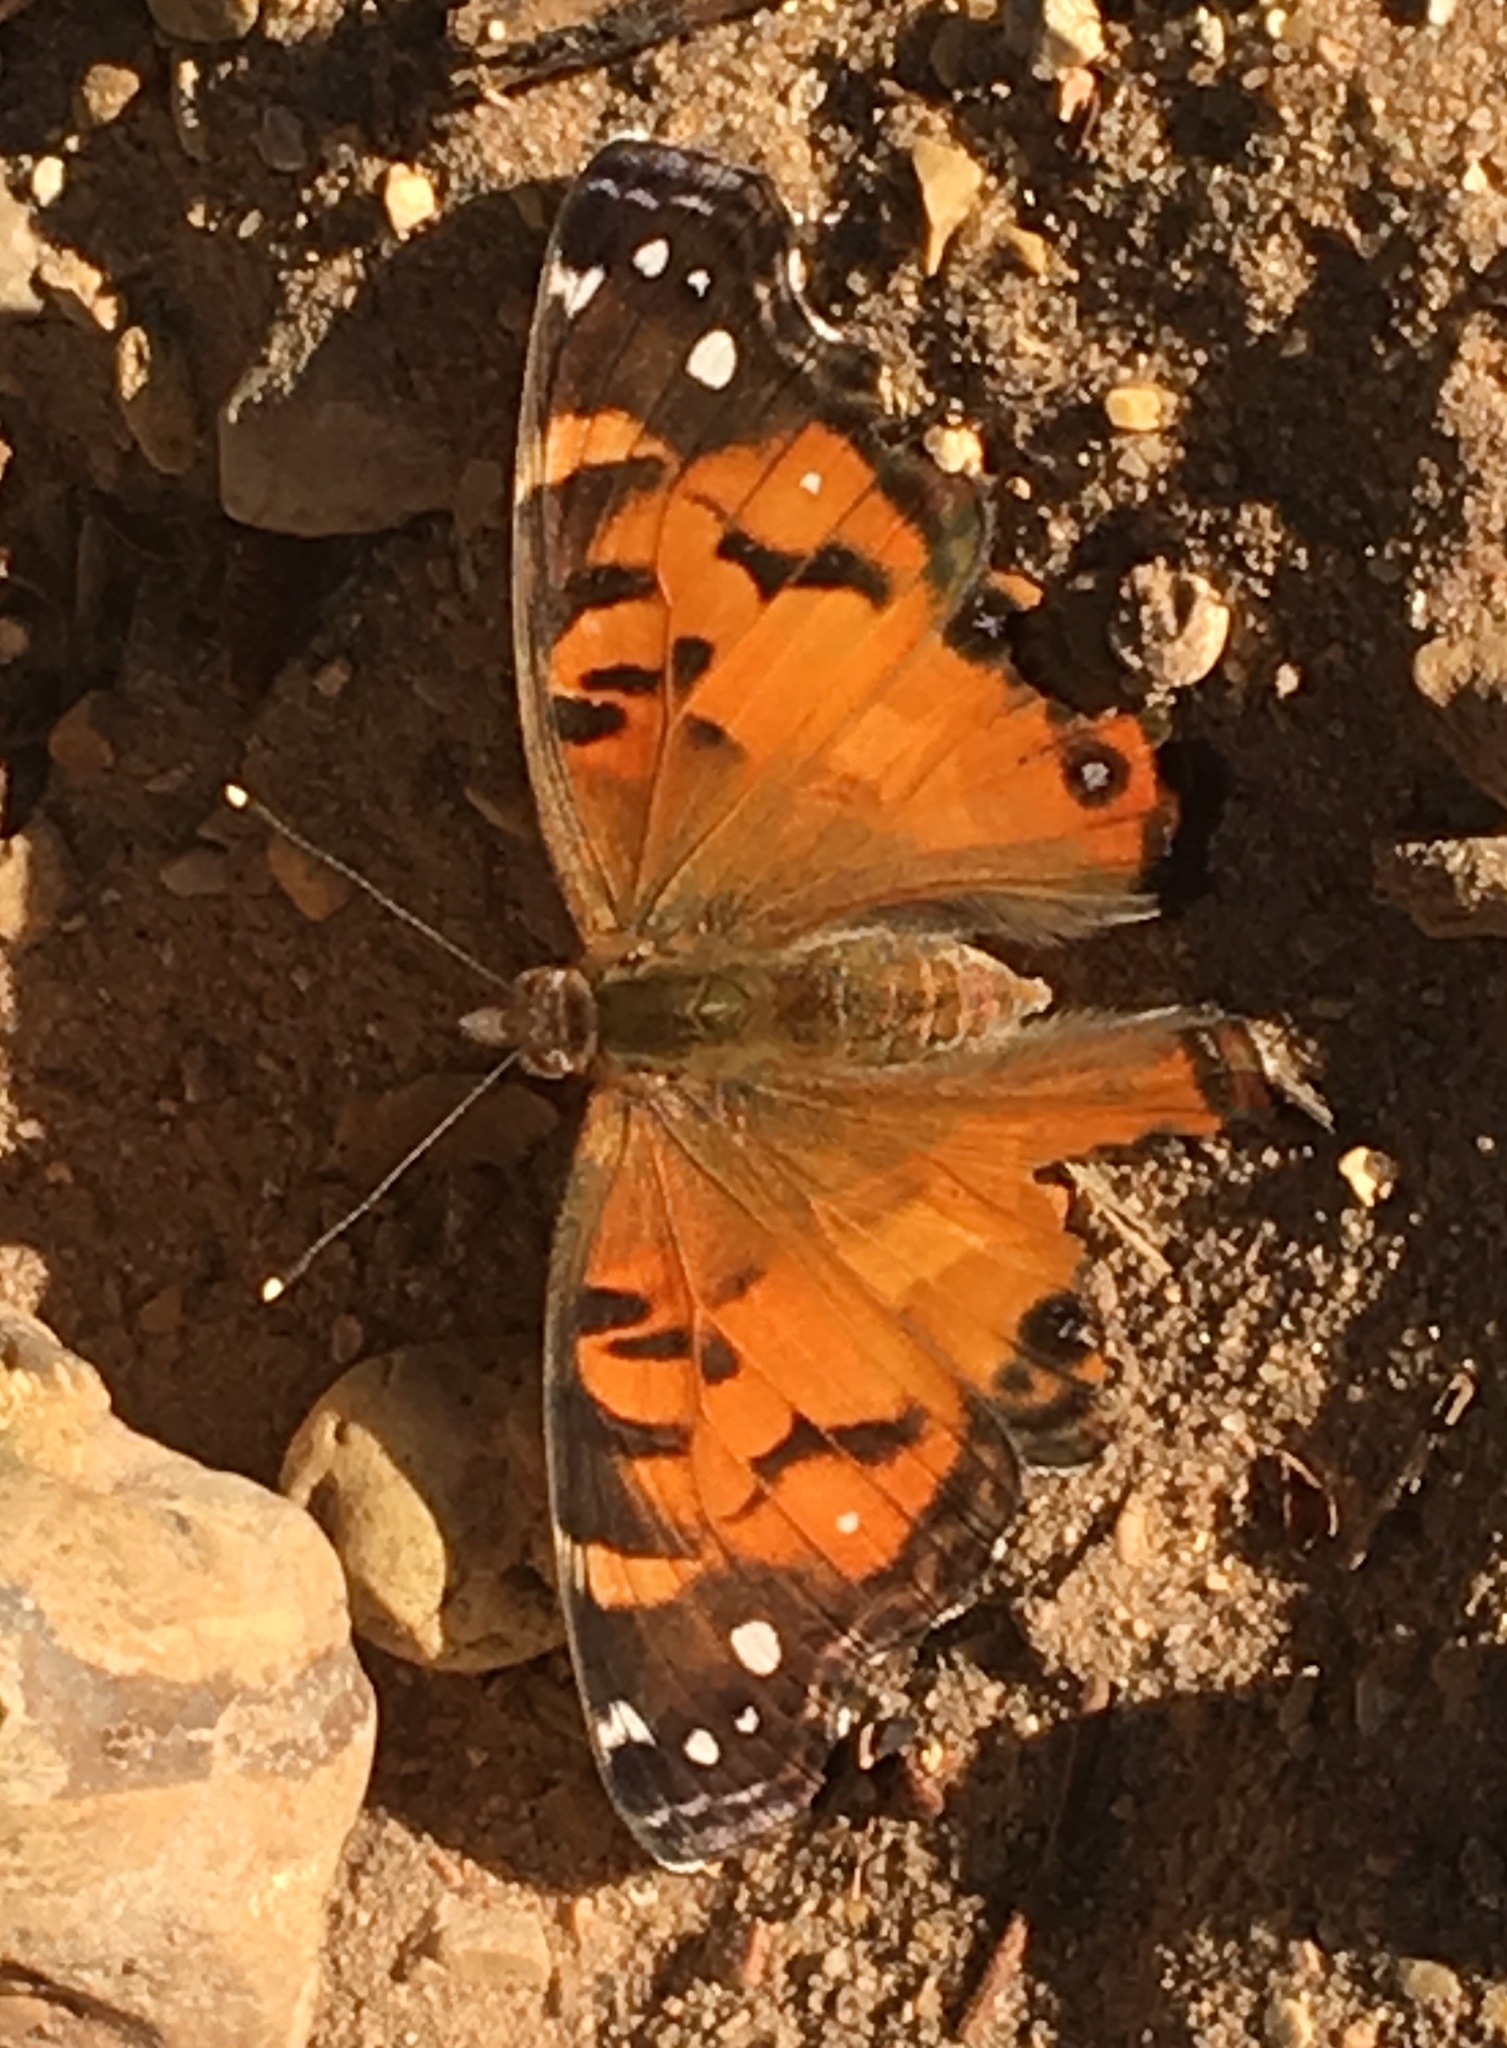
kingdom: Animalia
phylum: Arthropoda
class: Insecta
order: Lepidoptera
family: Nymphalidae
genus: Vanessa
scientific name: Vanessa virginiensis
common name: American lady
